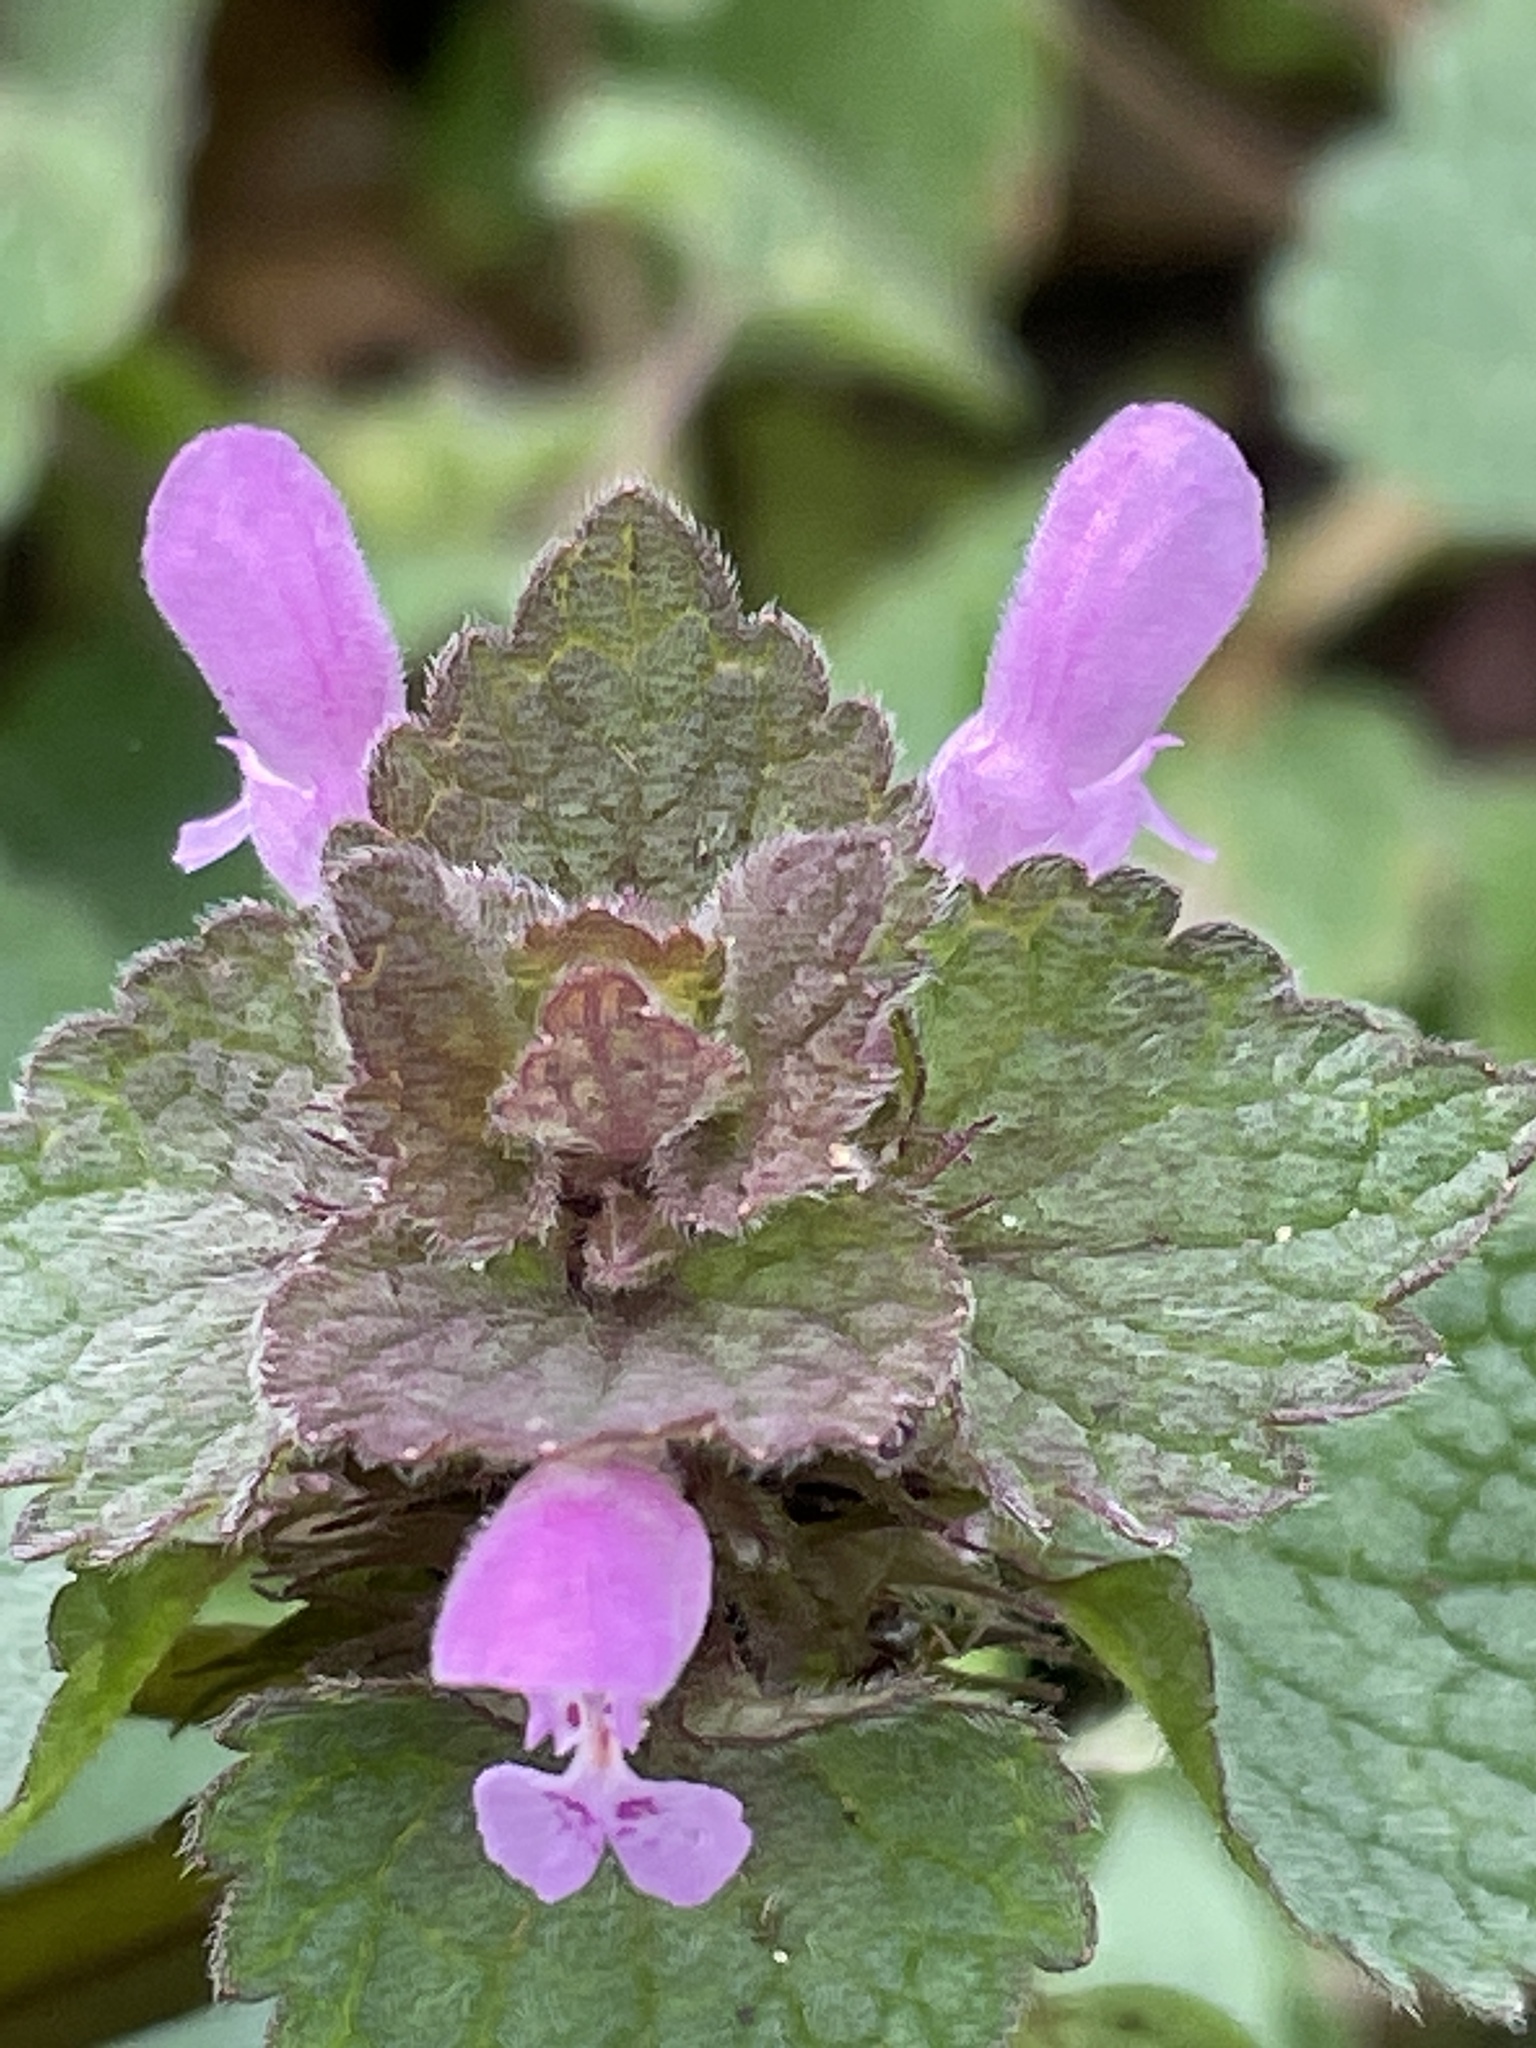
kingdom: Plantae
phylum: Tracheophyta
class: Magnoliopsida
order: Lamiales
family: Lamiaceae
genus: Lamium
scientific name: Lamium purpureum
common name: Red dead-nettle
